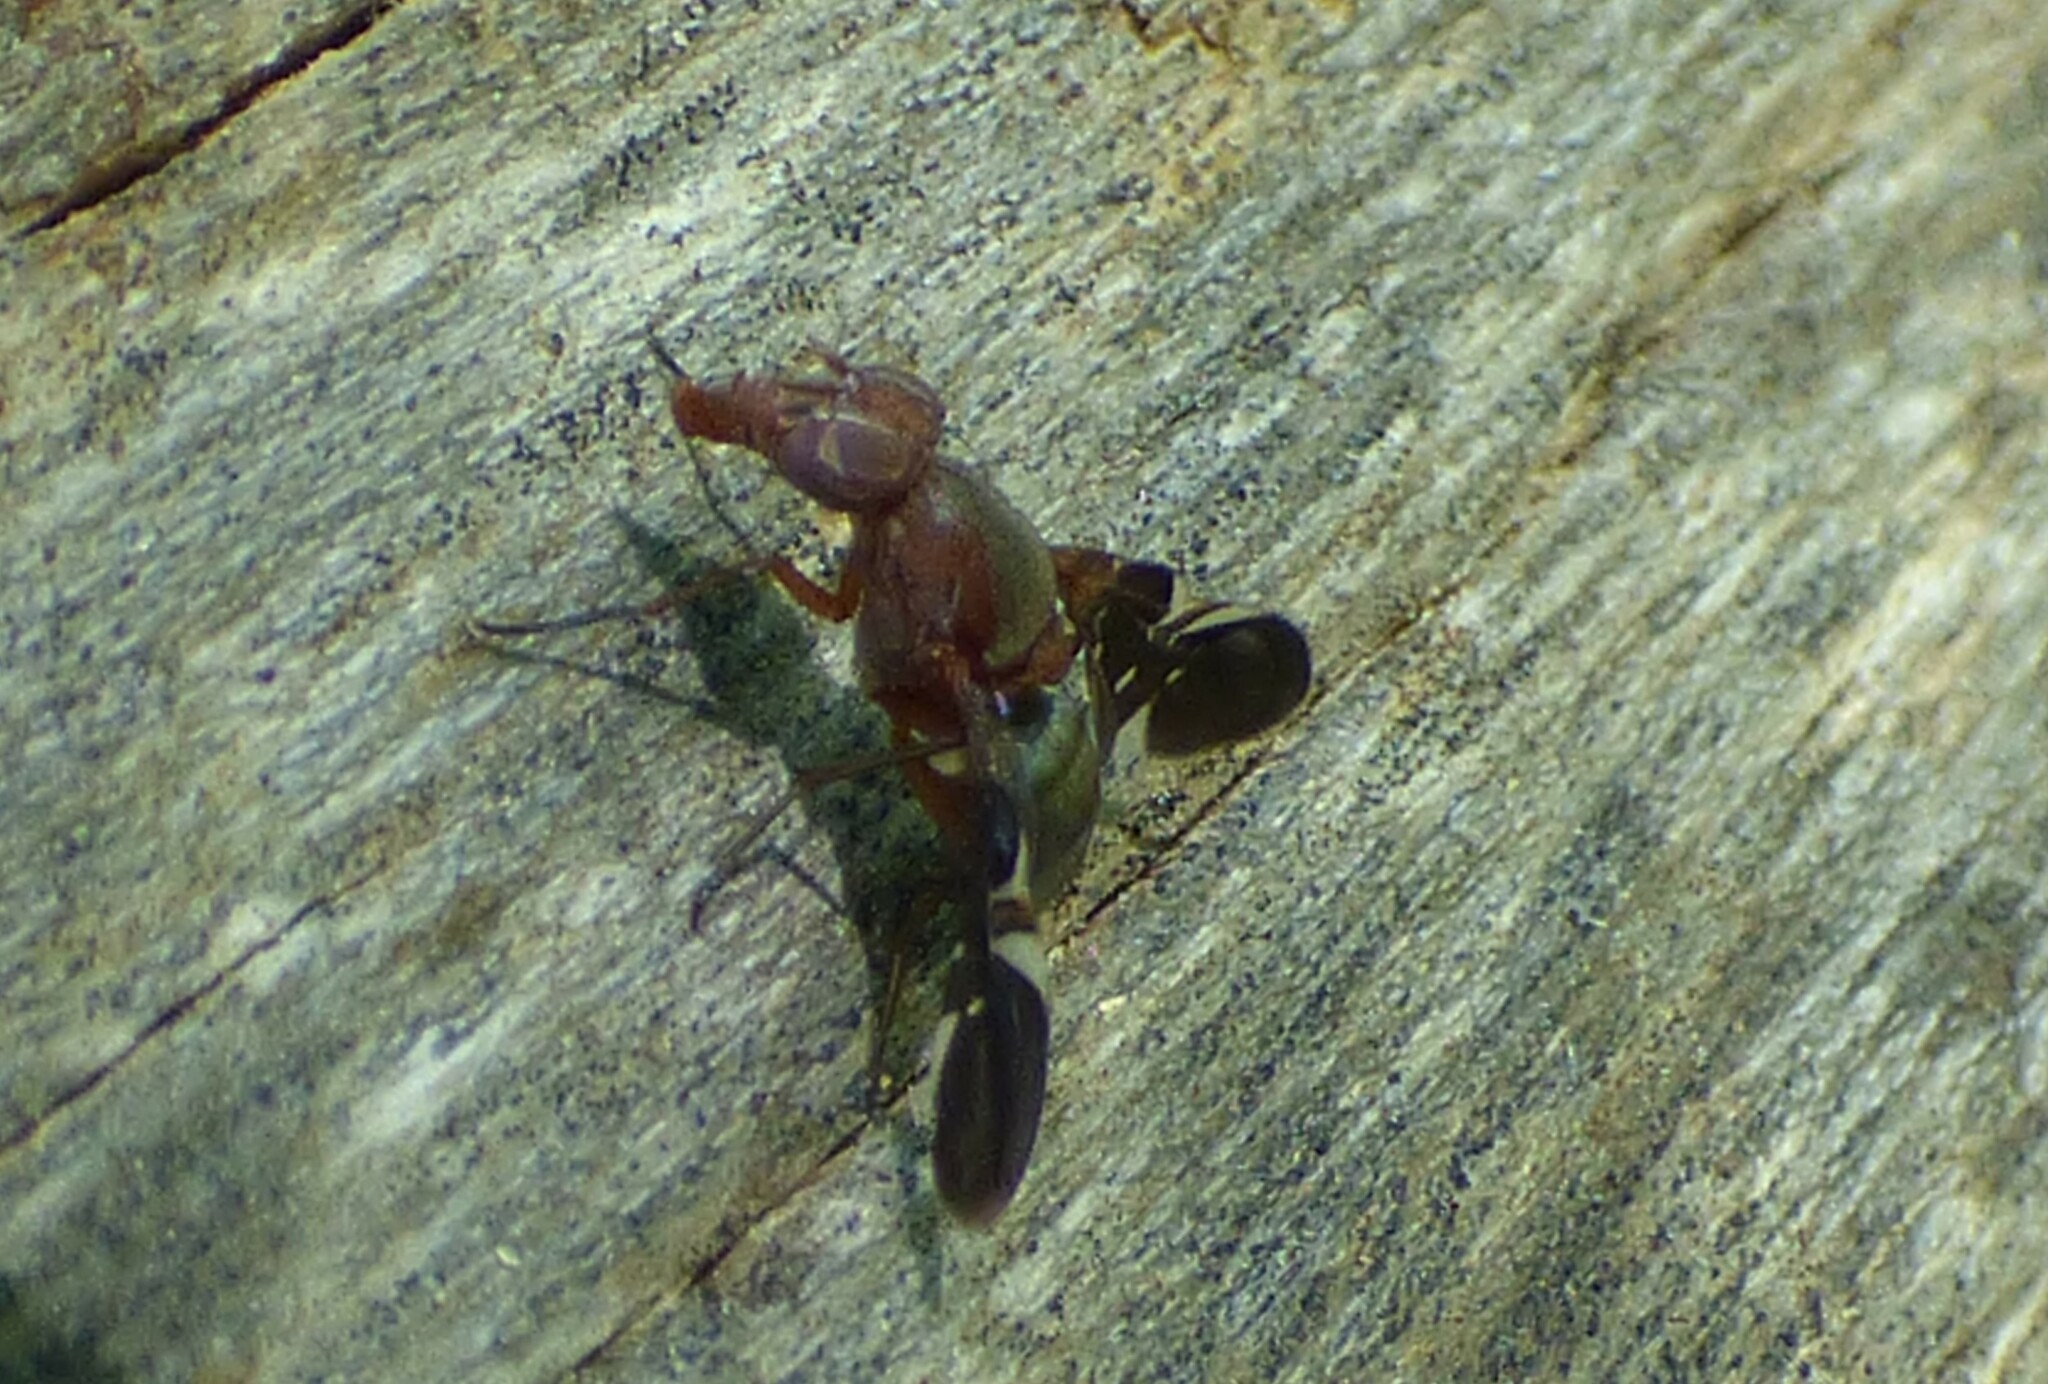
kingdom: Animalia
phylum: Arthropoda
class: Insecta
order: Diptera
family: Ulidiidae
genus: Delphinia
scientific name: Delphinia picta
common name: Common picture-winged fly
